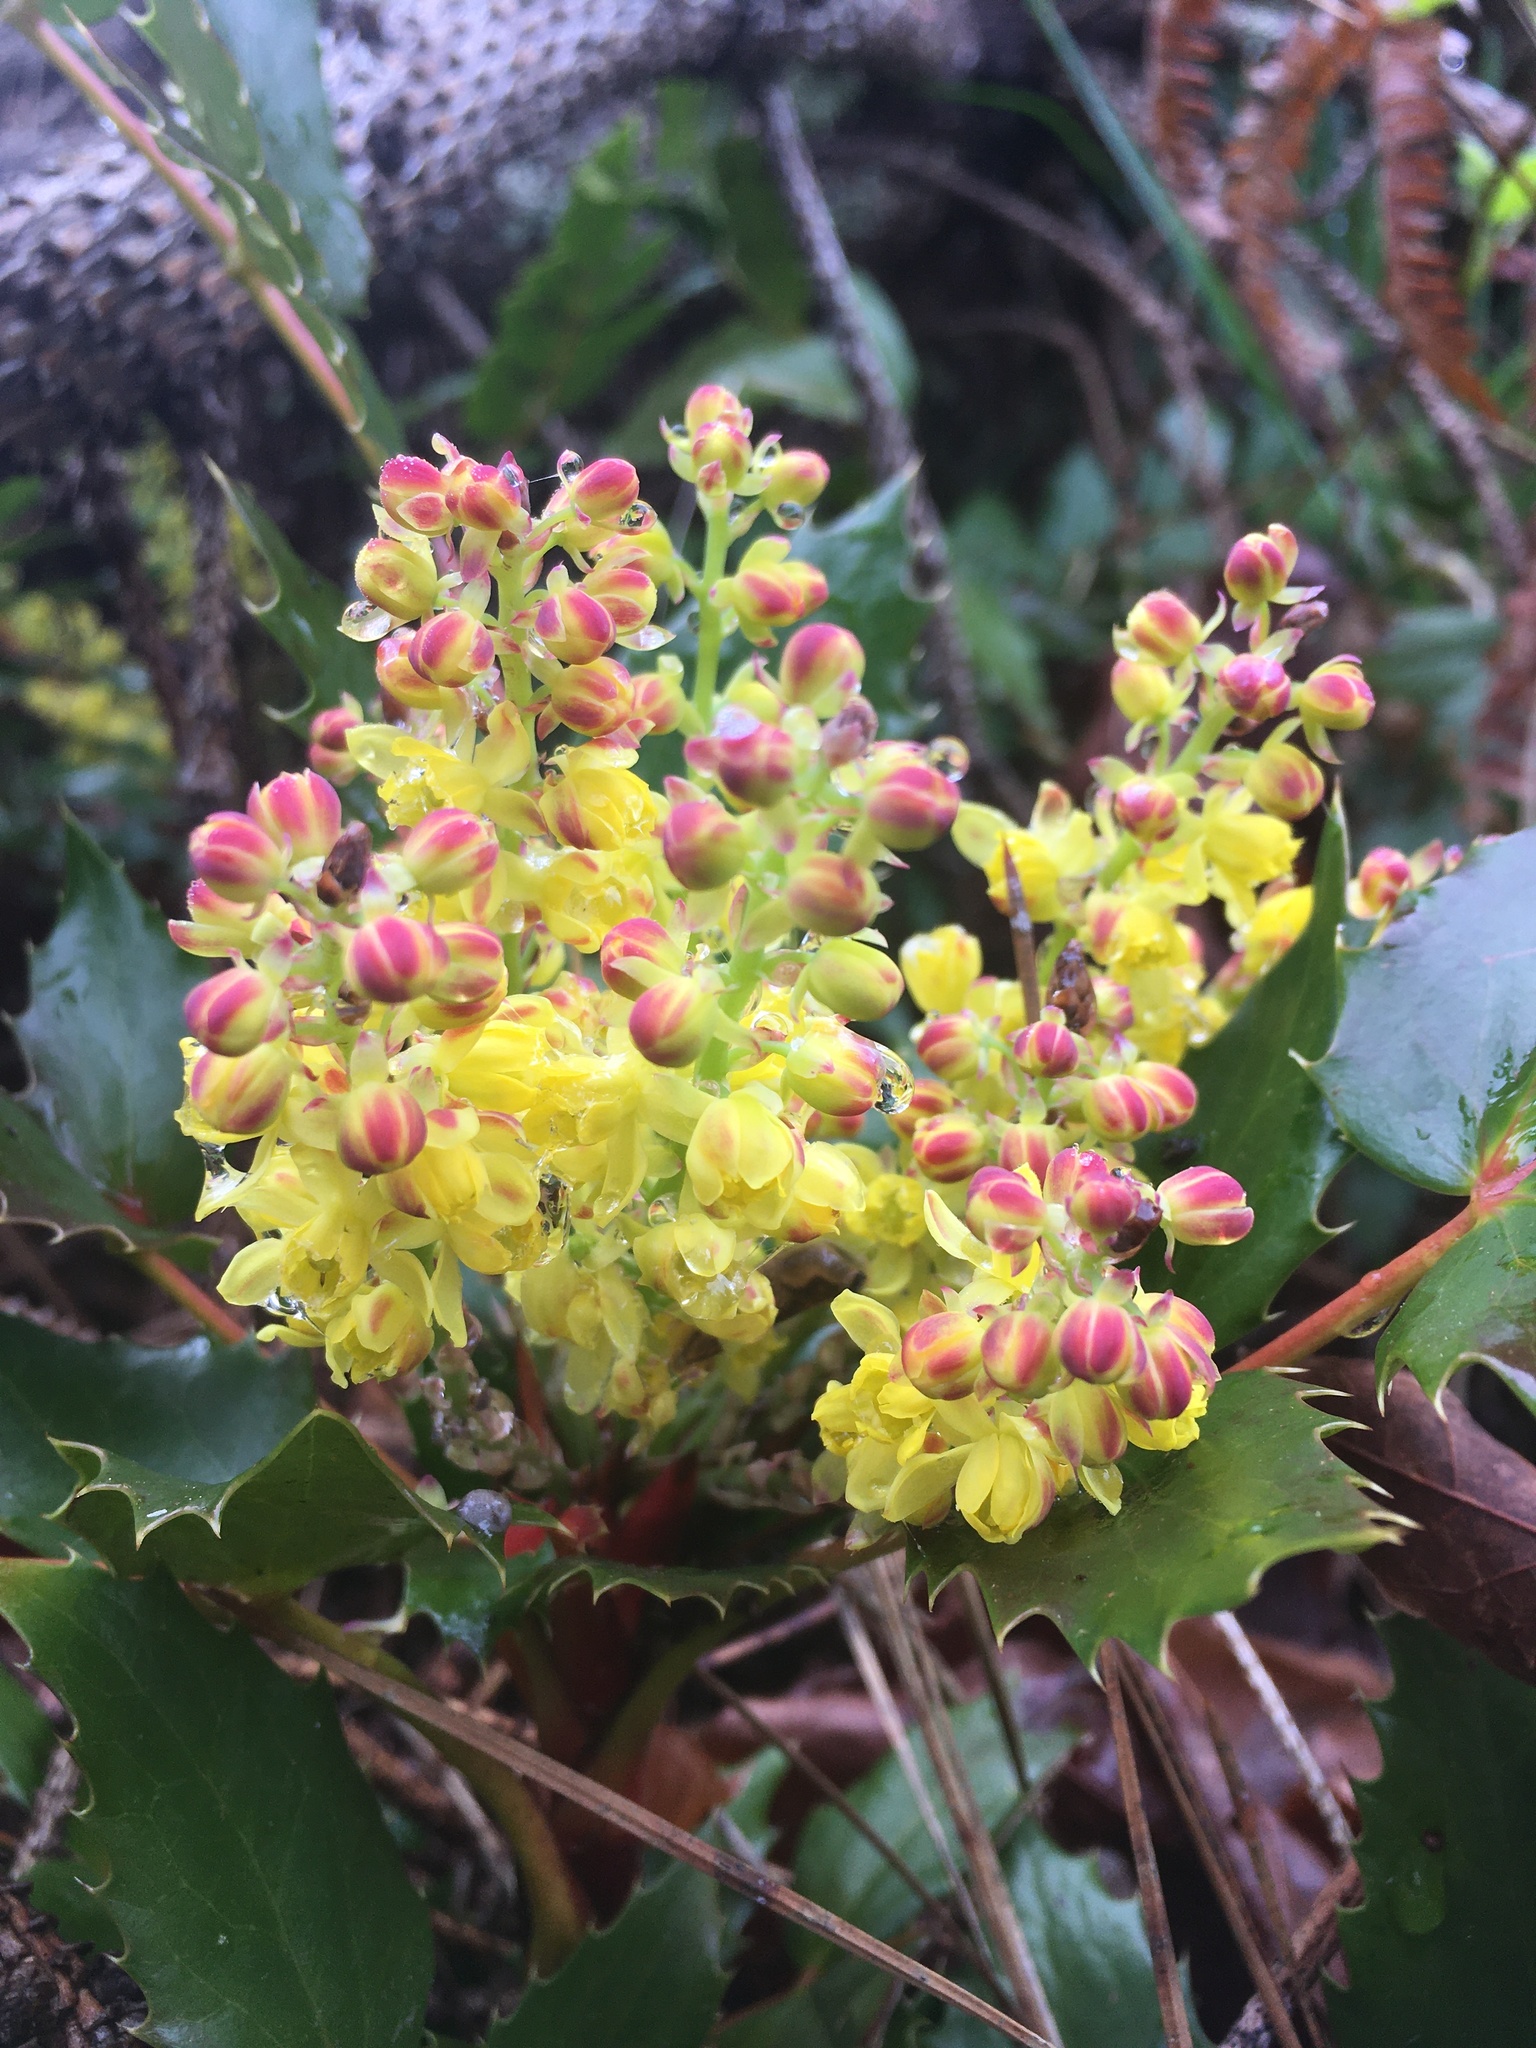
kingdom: Plantae
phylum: Tracheophyta
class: Magnoliopsida
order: Ranunculales
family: Berberidaceae
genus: Mahonia
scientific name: Mahonia nervosa
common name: Cascade oregon-grape
